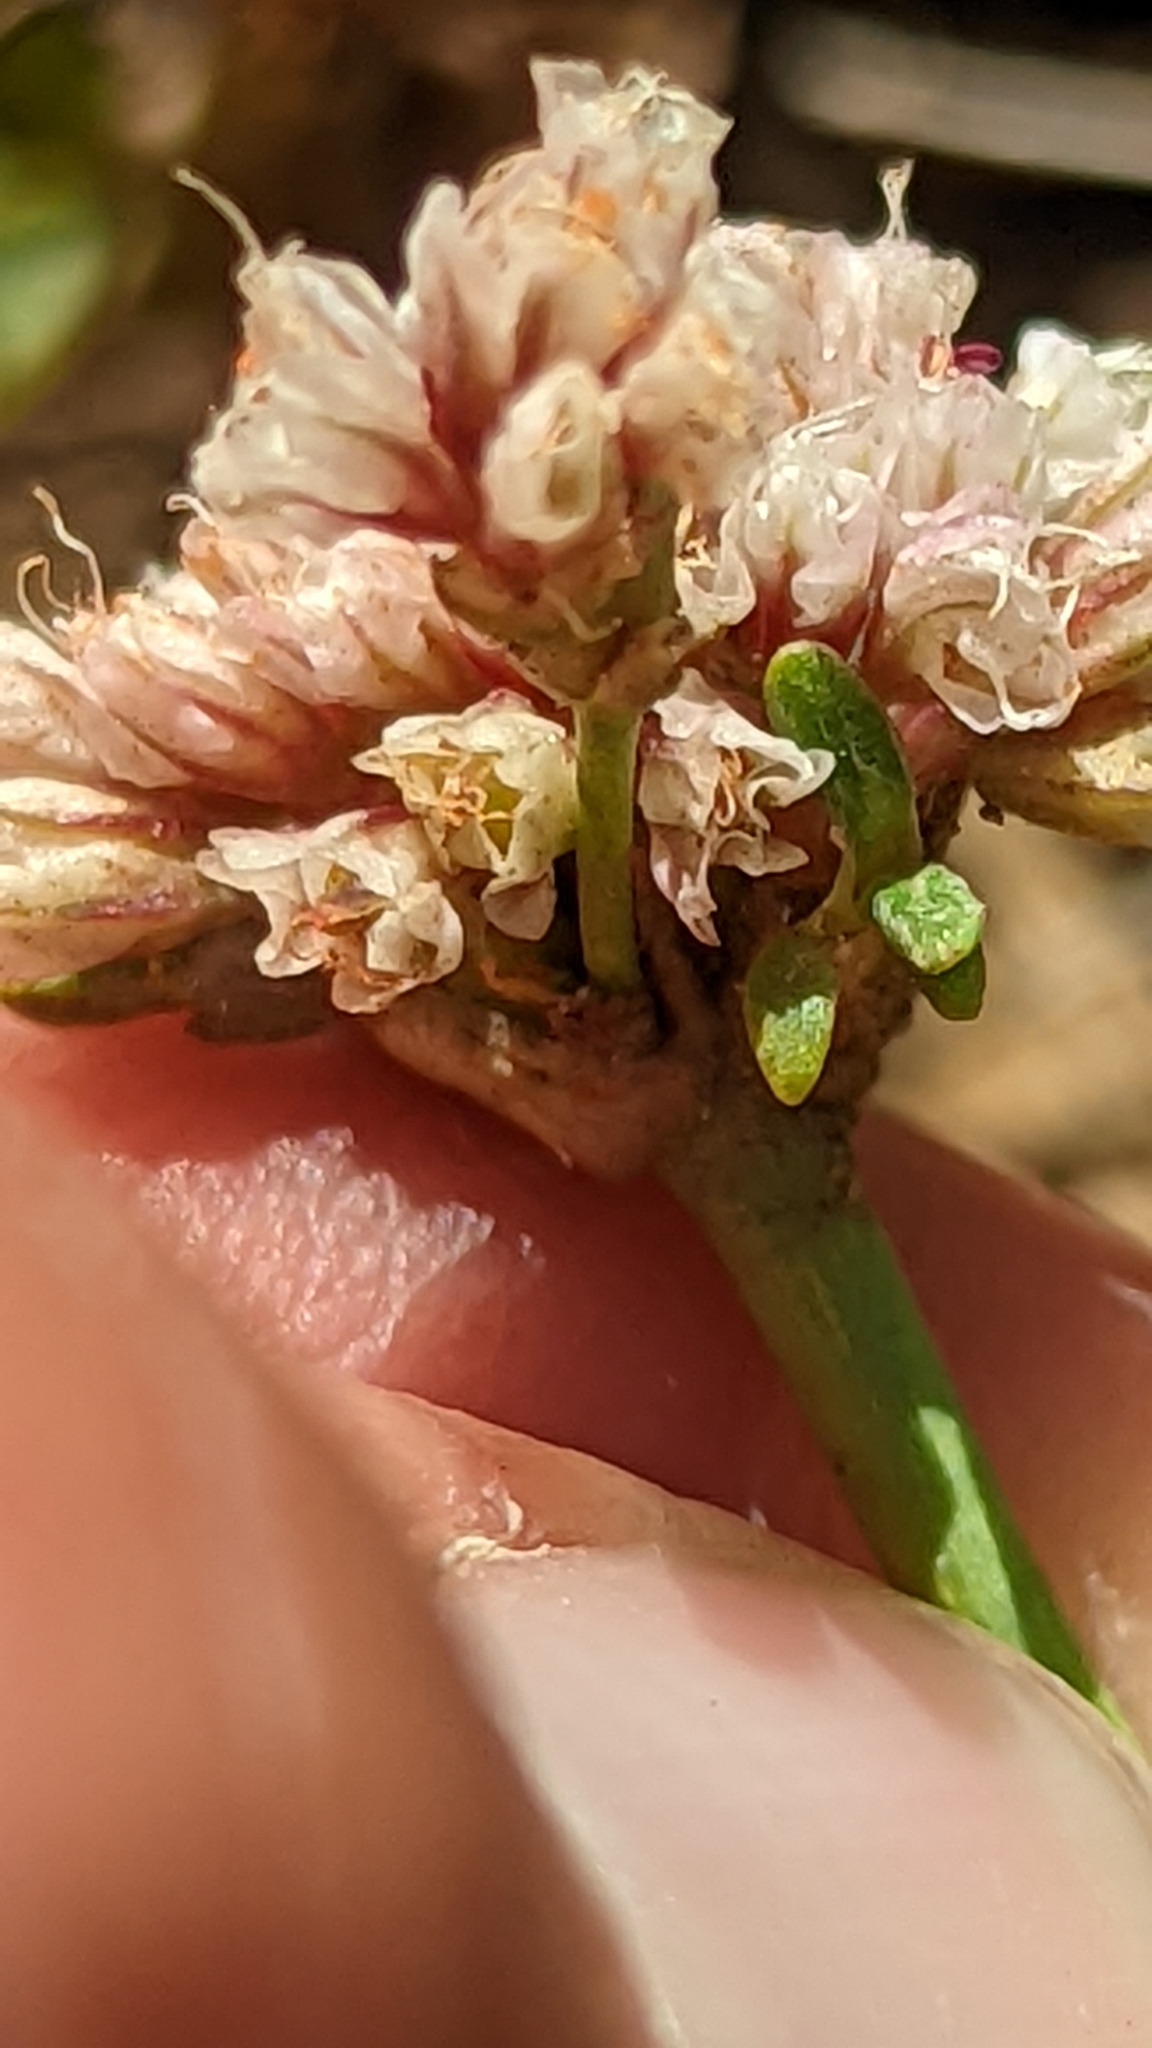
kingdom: Plantae
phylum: Tracheophyta
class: Magnoliopsida
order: Caryophyllales
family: Polygonaceae
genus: Eriogonum
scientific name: Eriogonum panguicense
